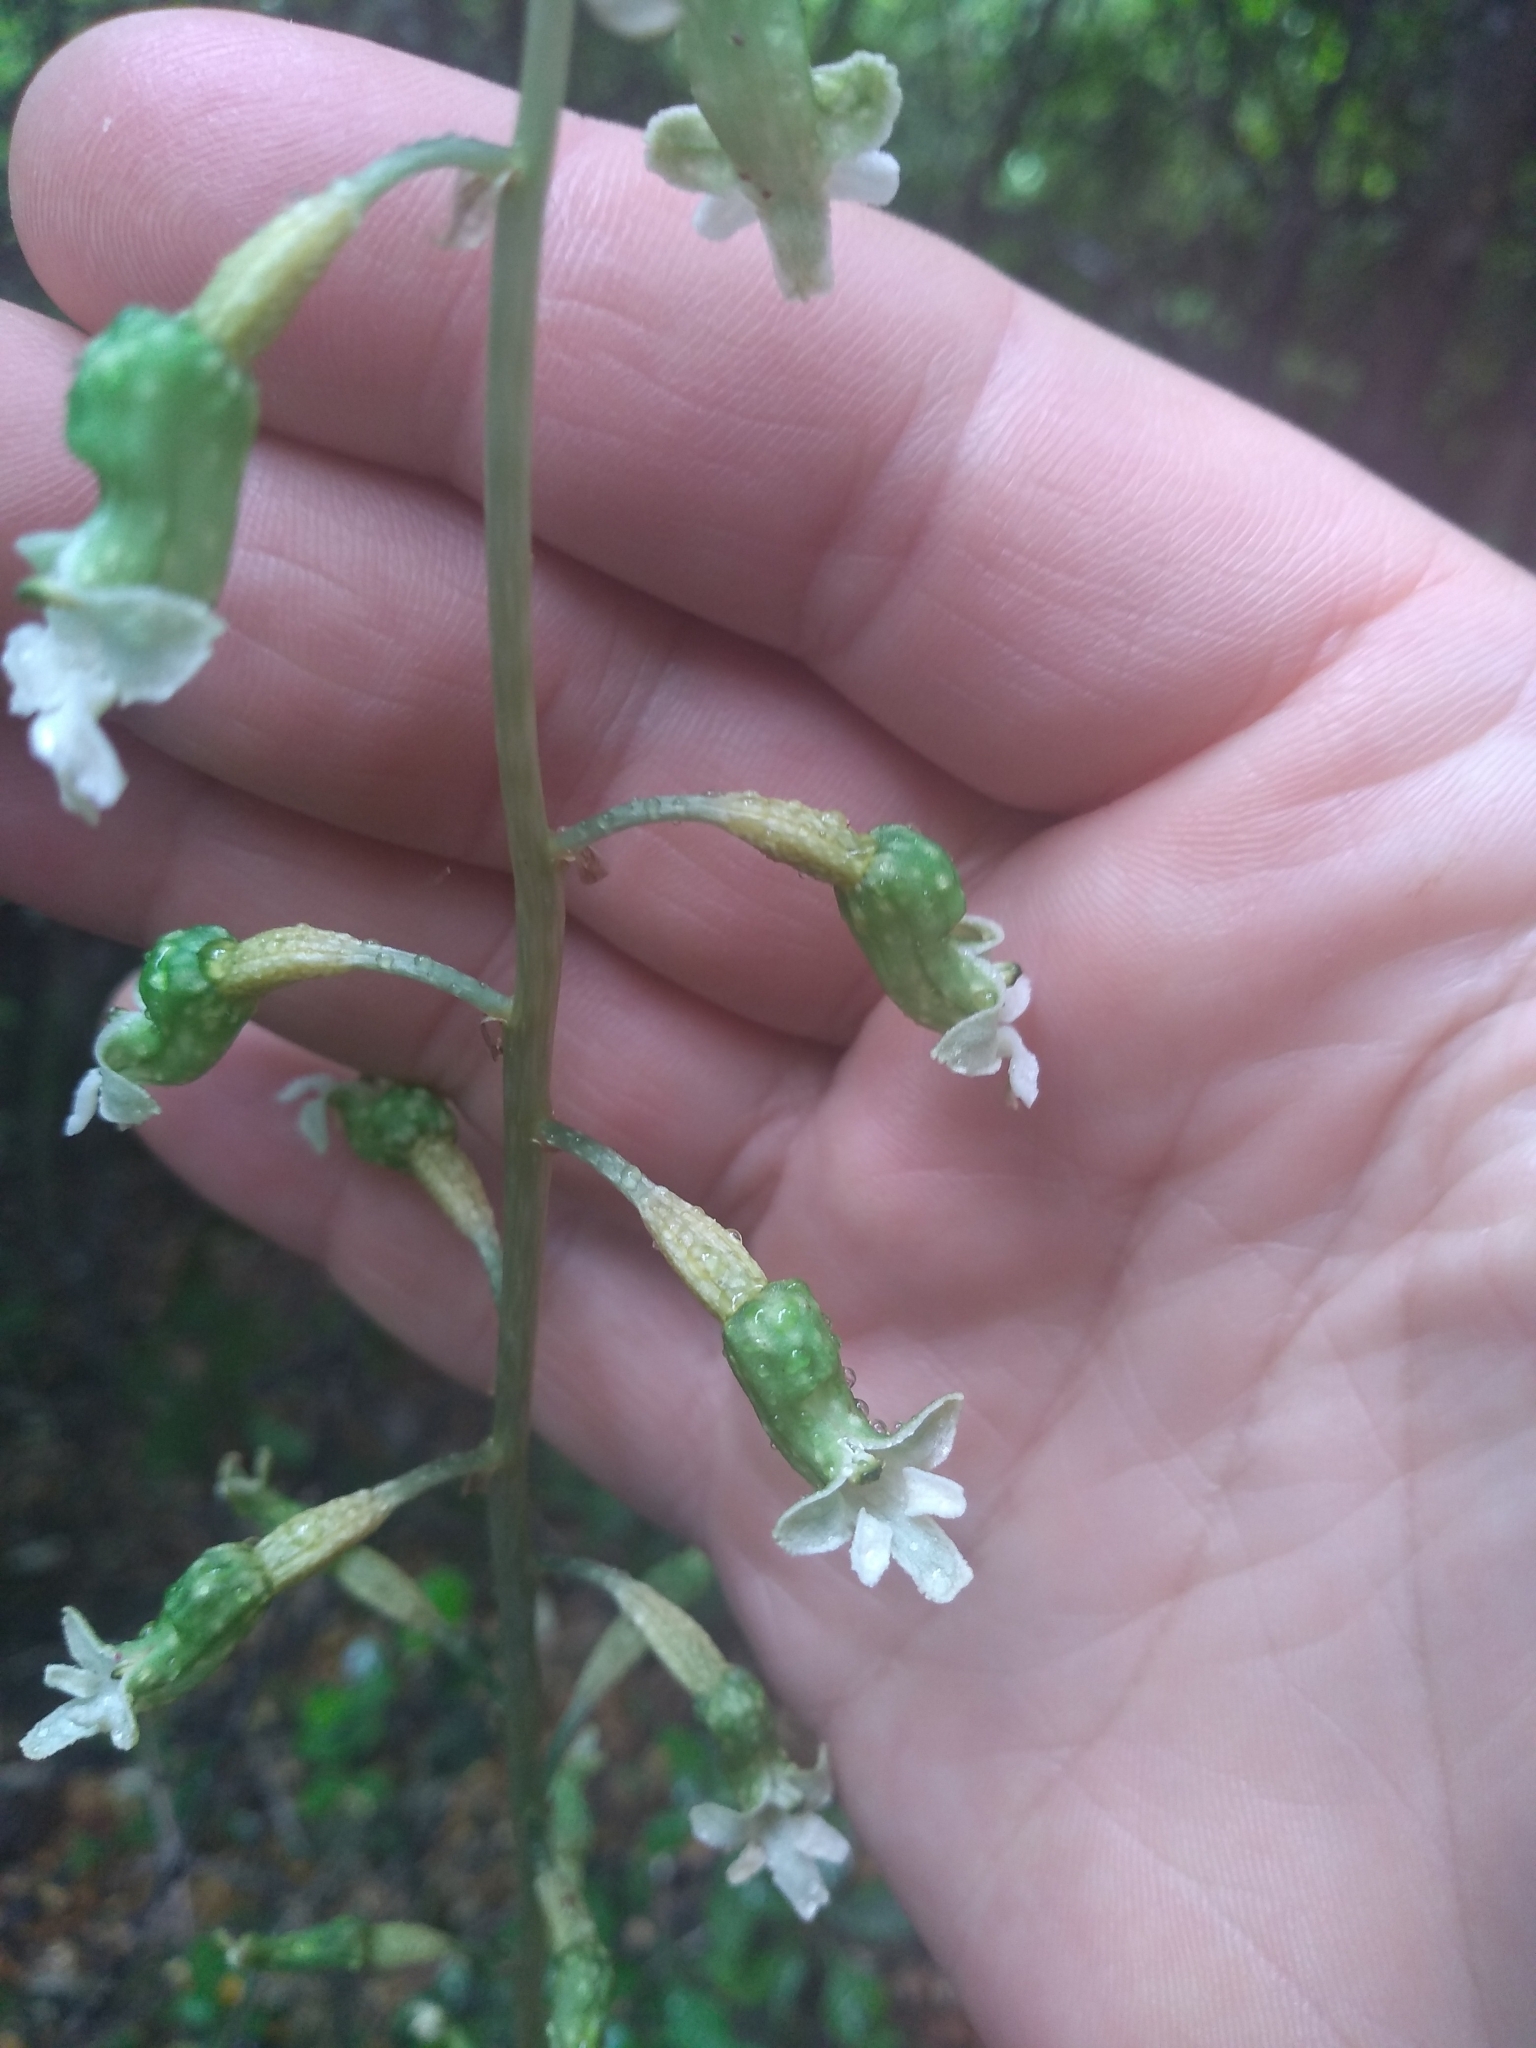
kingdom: Plantae
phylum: Tracheophyta
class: Liliopsida
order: Asparagales
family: Orchidaceae
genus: Gastrodia
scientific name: Gastrodia cunninghamii
